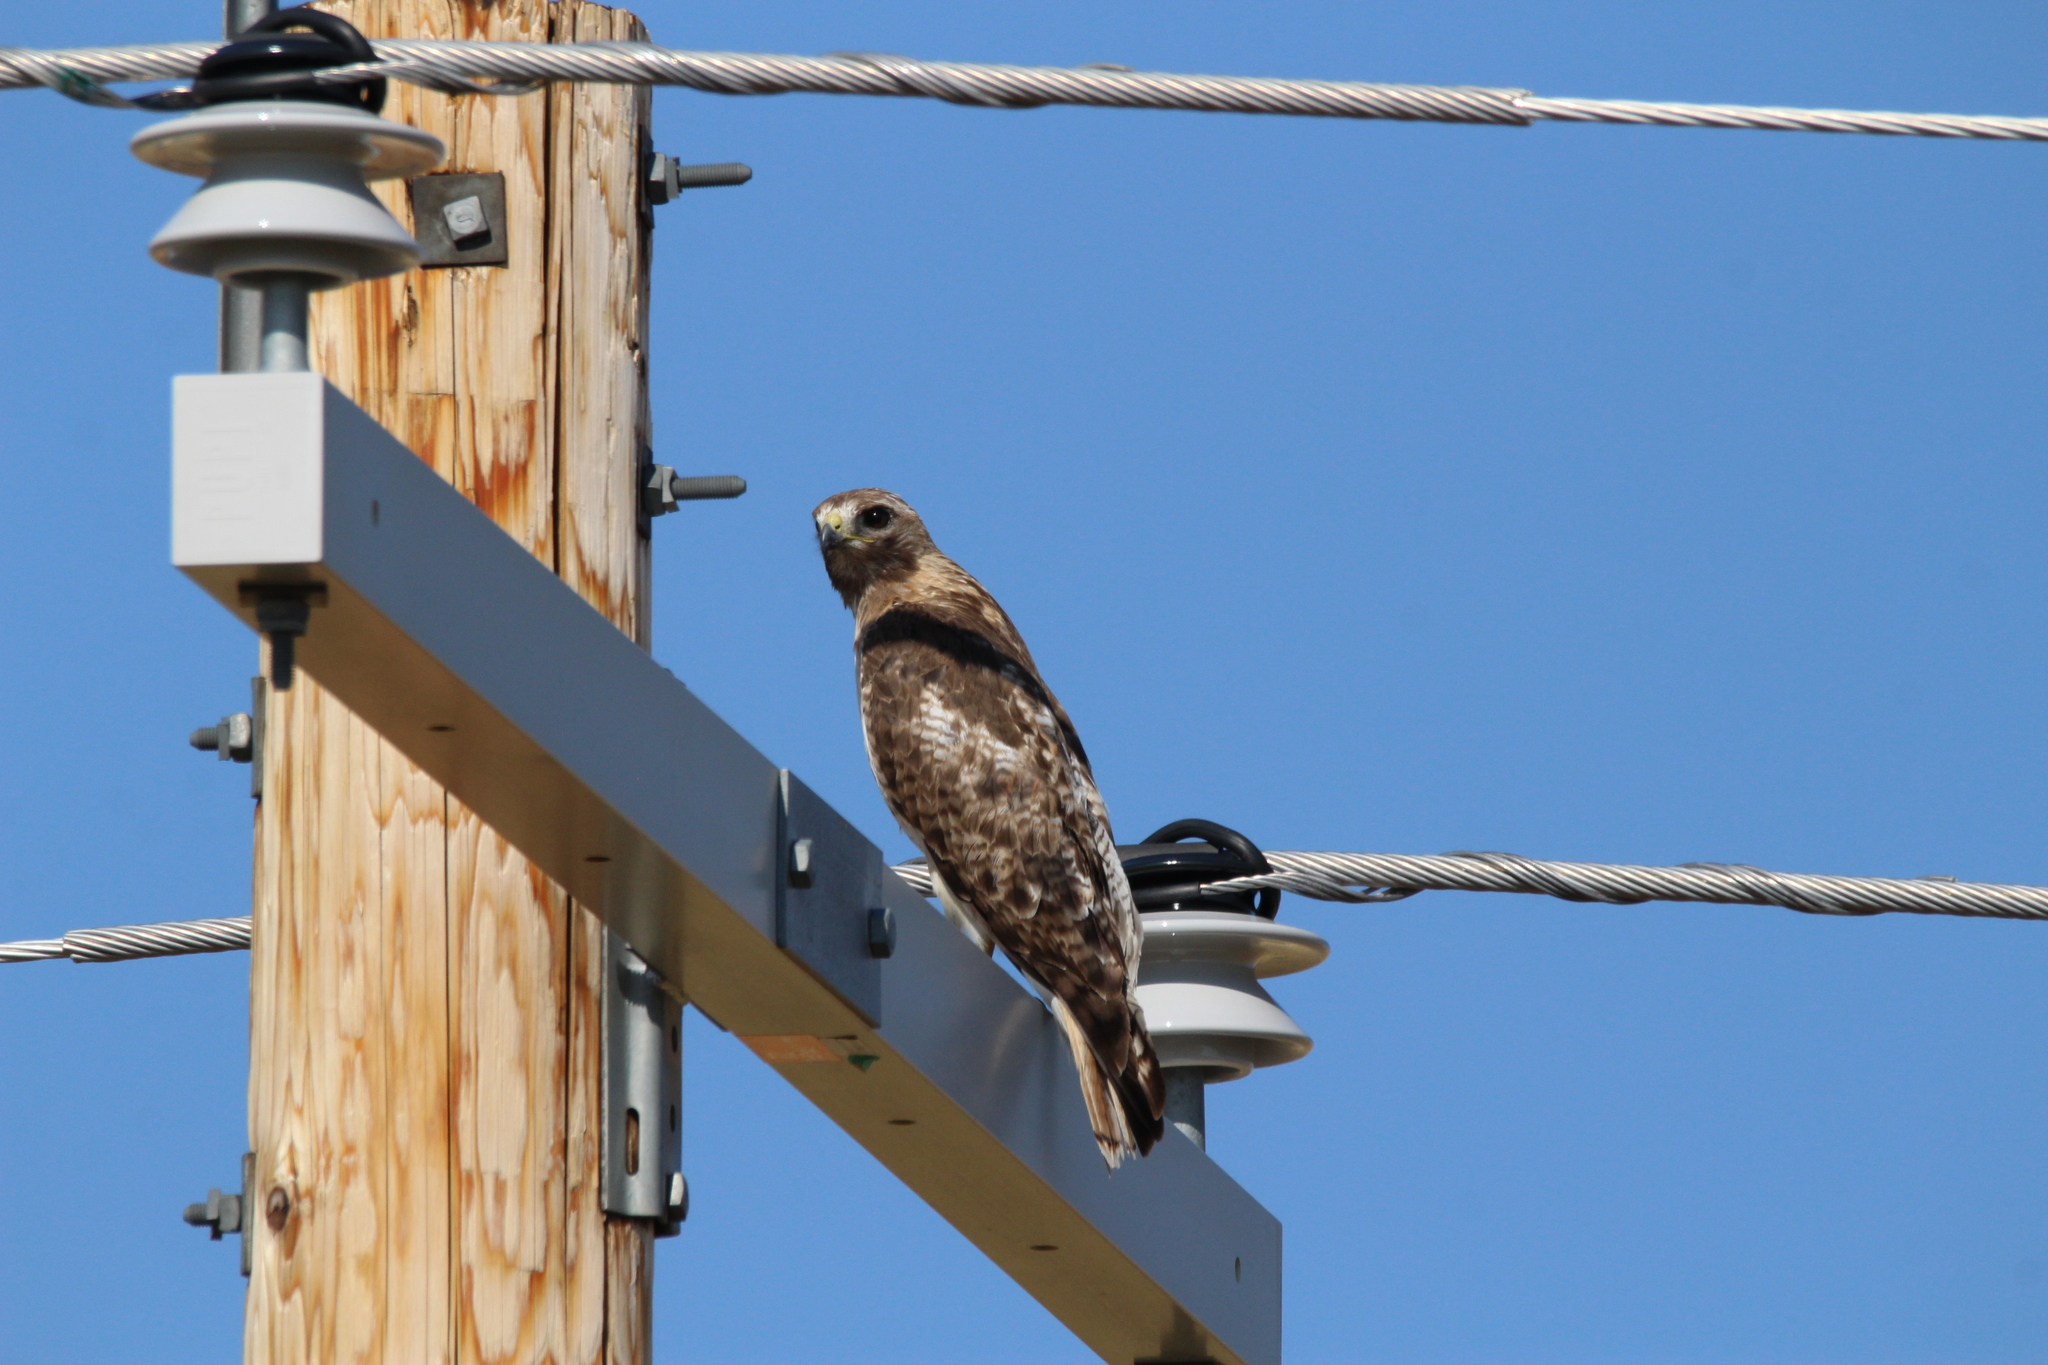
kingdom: Animalia
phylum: Chordata
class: Aves
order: Accipitriformes
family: Accipitridae
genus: Buteo
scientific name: Buteo jamaicensis
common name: Red-tailed hawk
